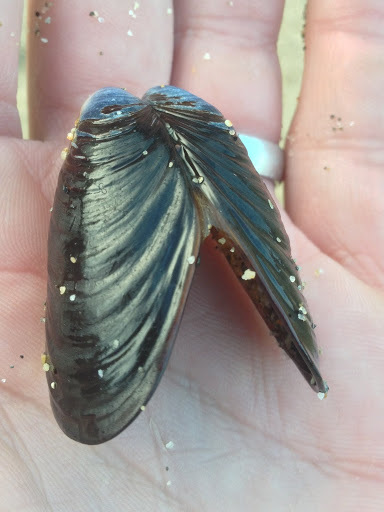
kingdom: Animalia
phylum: Mollusca
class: Bivalvia
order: Mytilida
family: Mytilidae
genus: Mytilus
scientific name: Mytilus californianus
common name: California mussel
